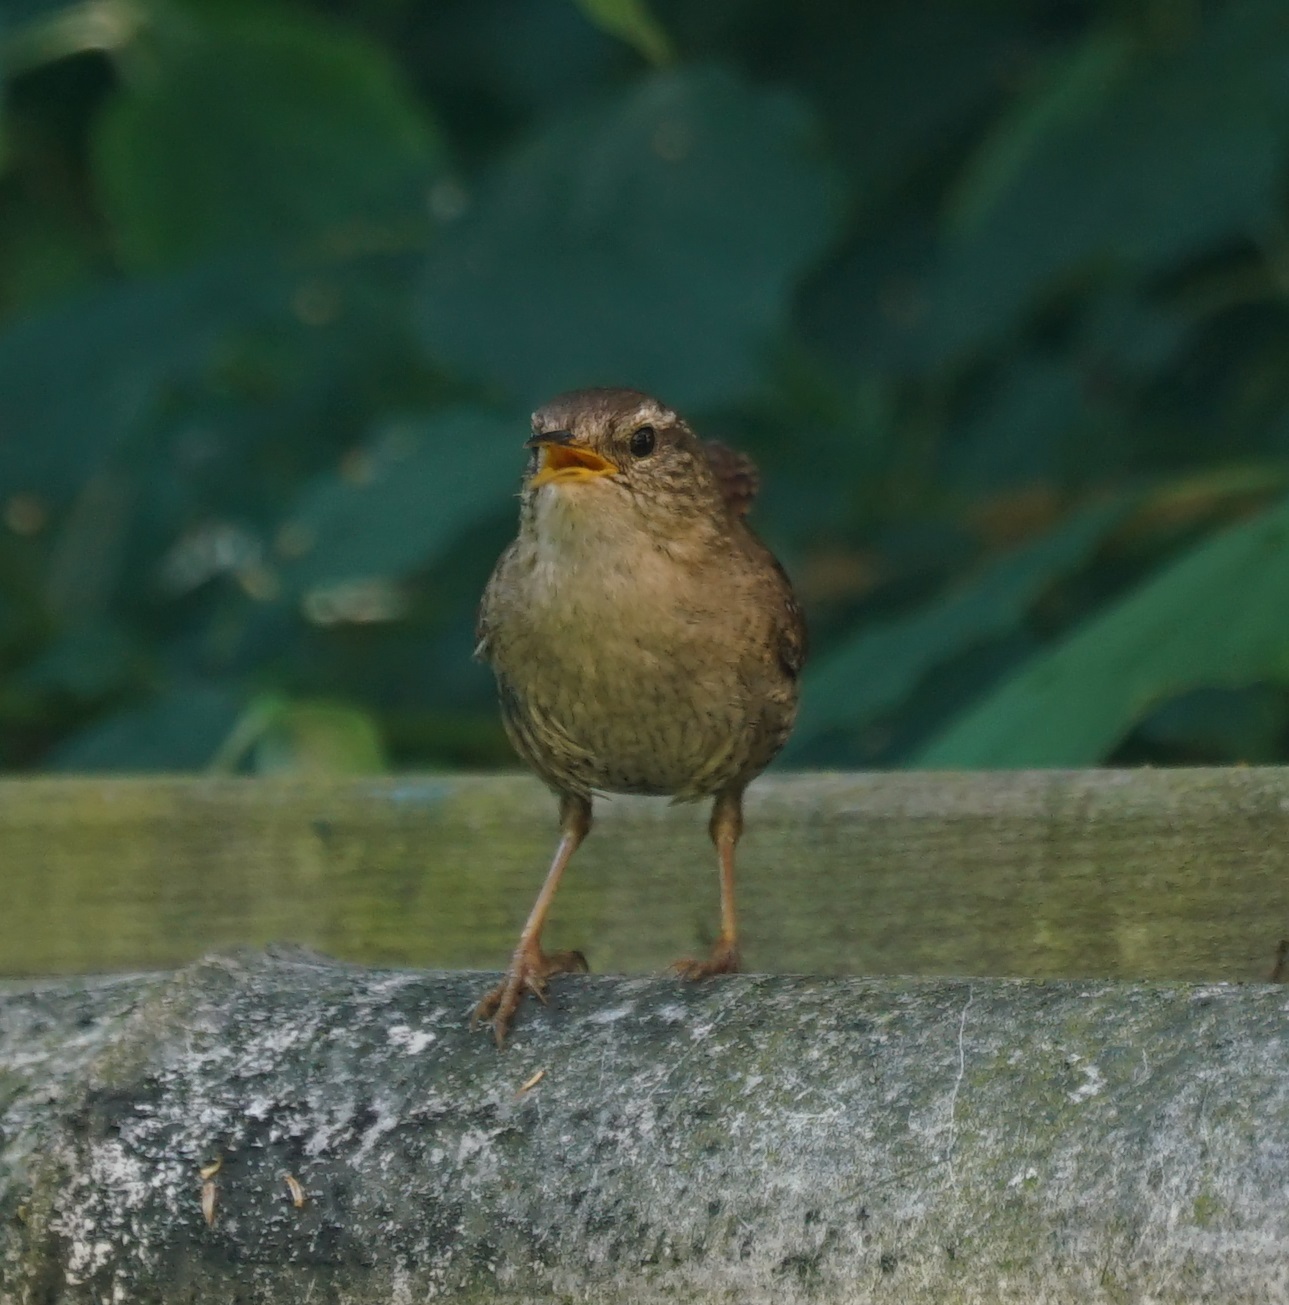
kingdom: Animalia
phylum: Chordata
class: Aves
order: Passeriformes
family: Troglodytidae
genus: Troglodytes
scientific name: Troglodytes troglodytes
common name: Eurasian wren
